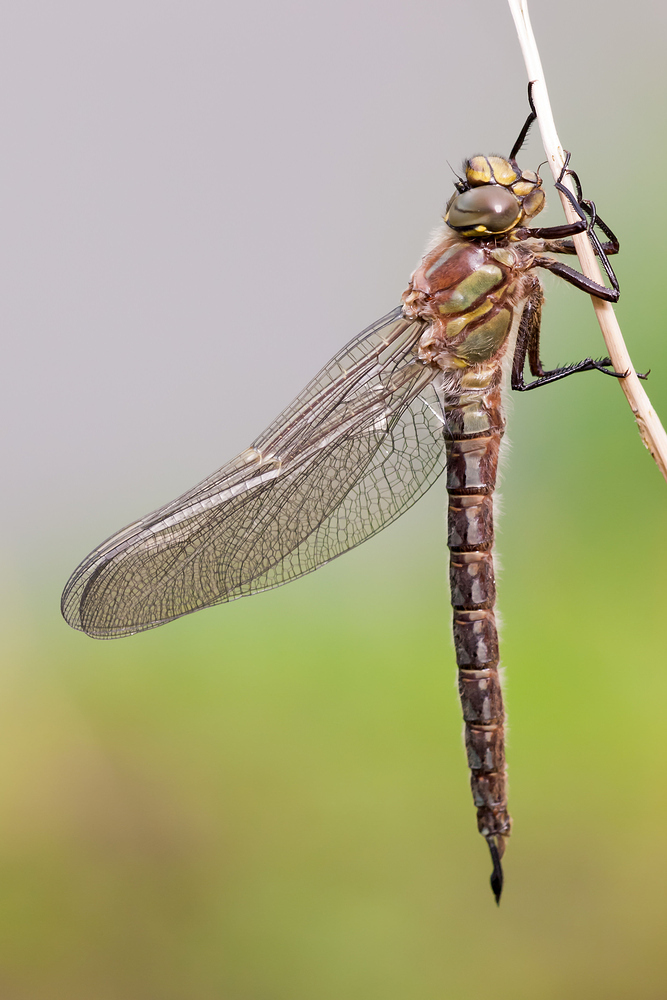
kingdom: Animalia
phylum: Arthropoda
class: Insecta
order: Odonata
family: Aeshnidae
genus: Brachytron
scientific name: Brachytron pratense
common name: Hairy hawker
